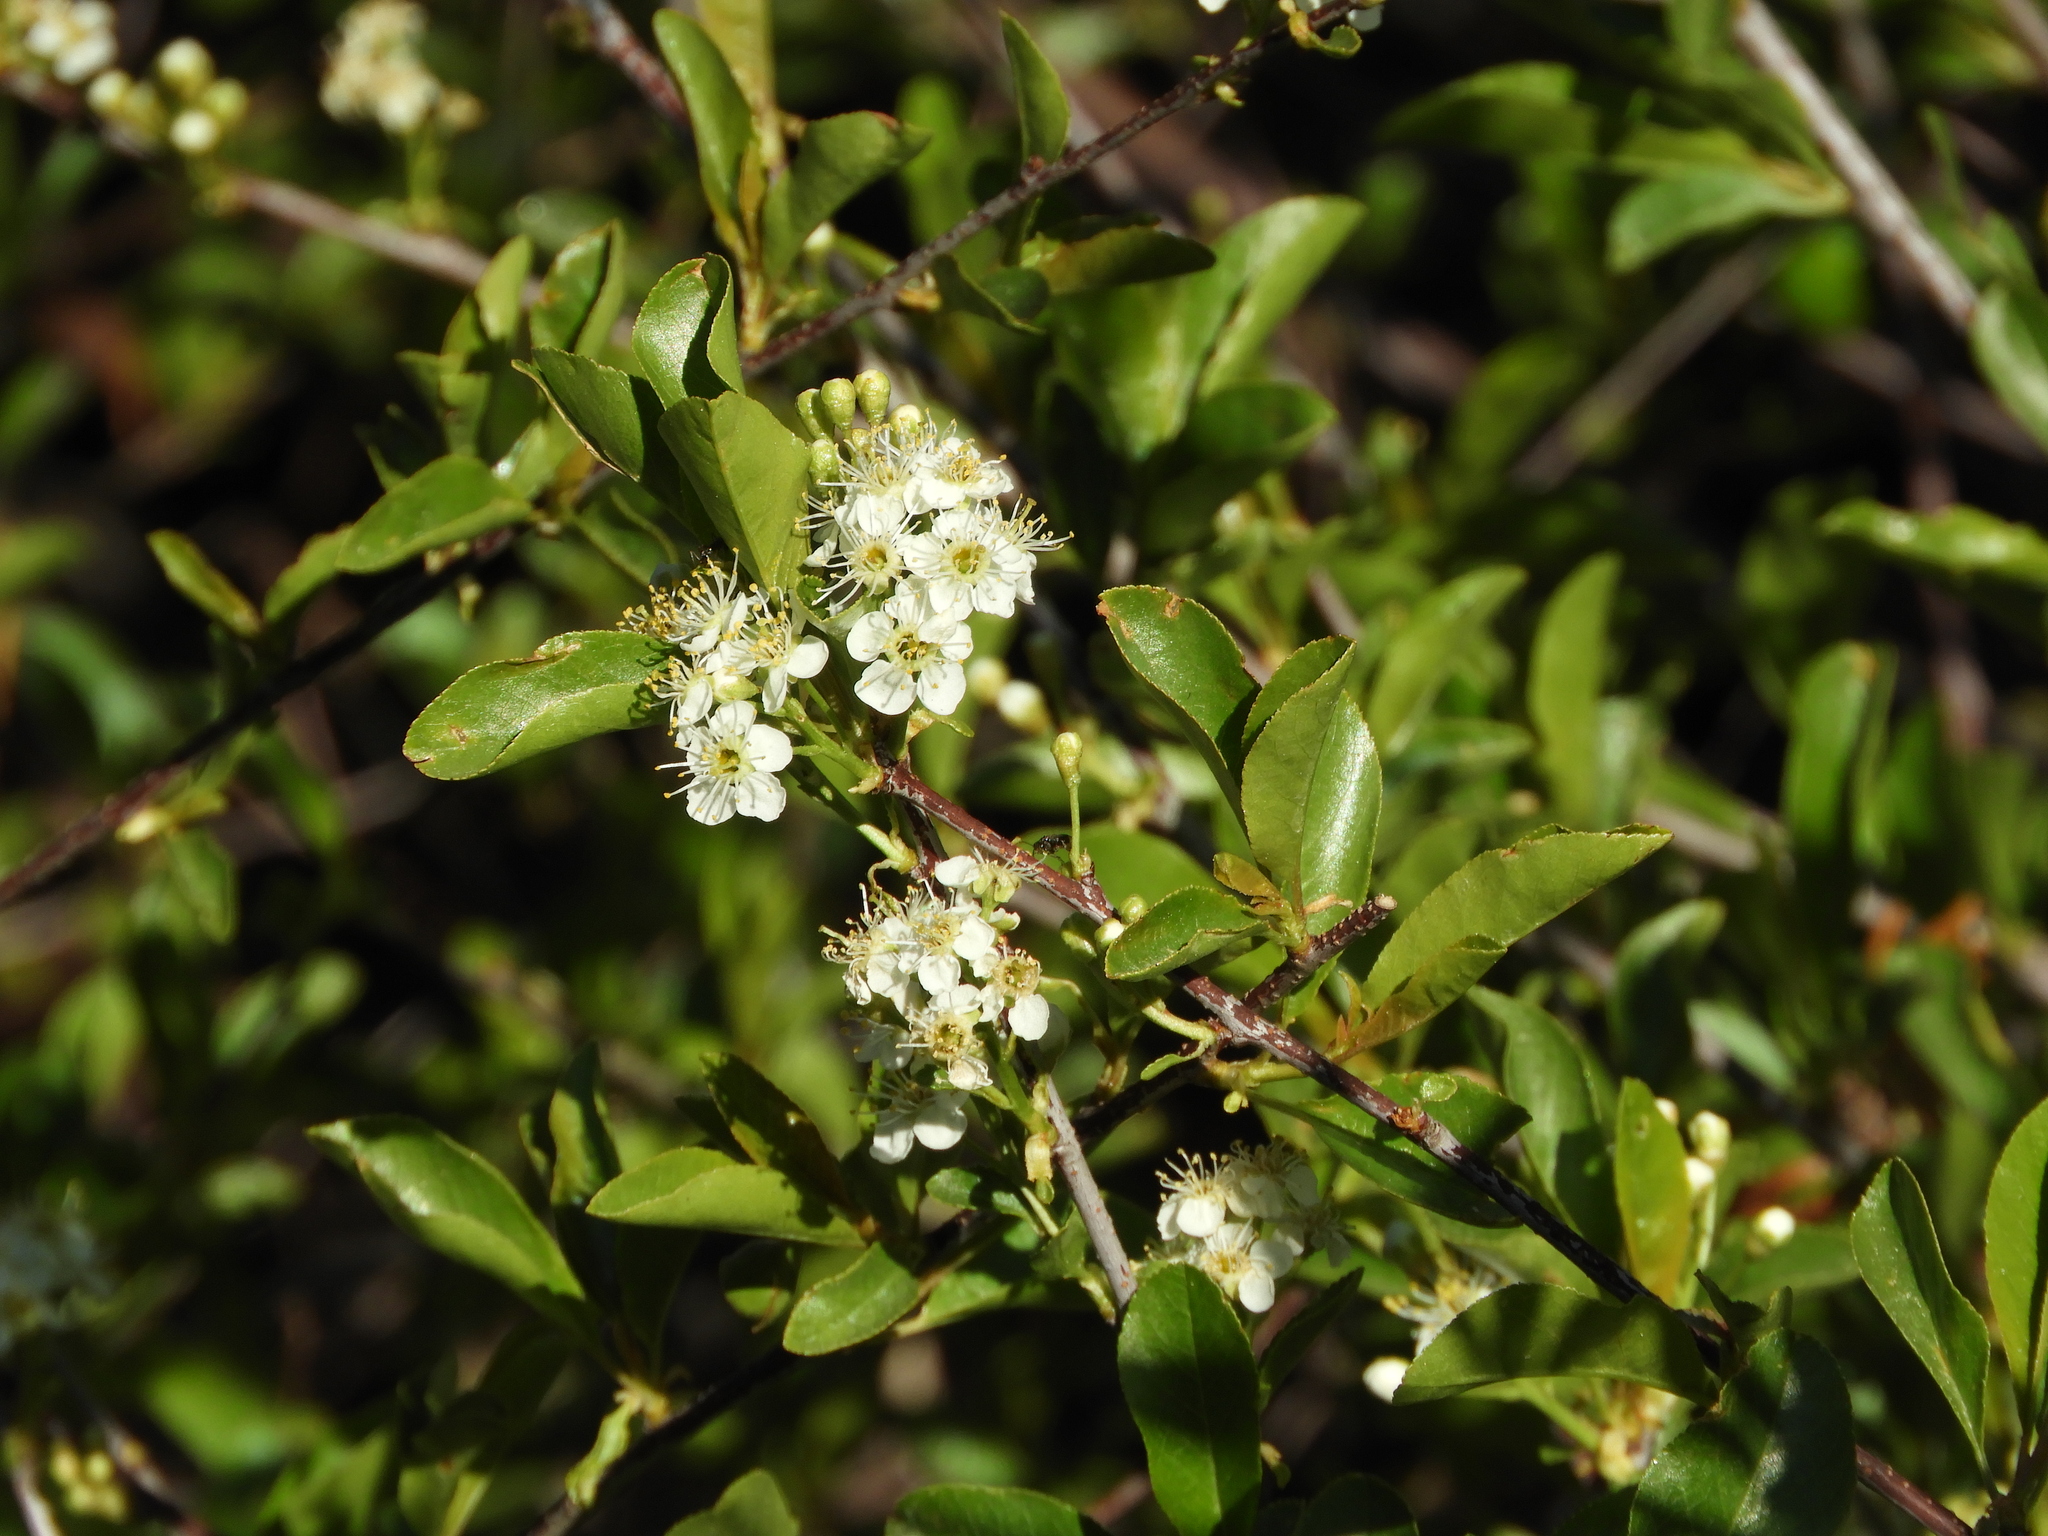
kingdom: Plantae
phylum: Tracheophyta
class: Magnoliopsida
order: Rosales
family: Rosaceae
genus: Prunus
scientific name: Prunus emarginata
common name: Bitter cherry
